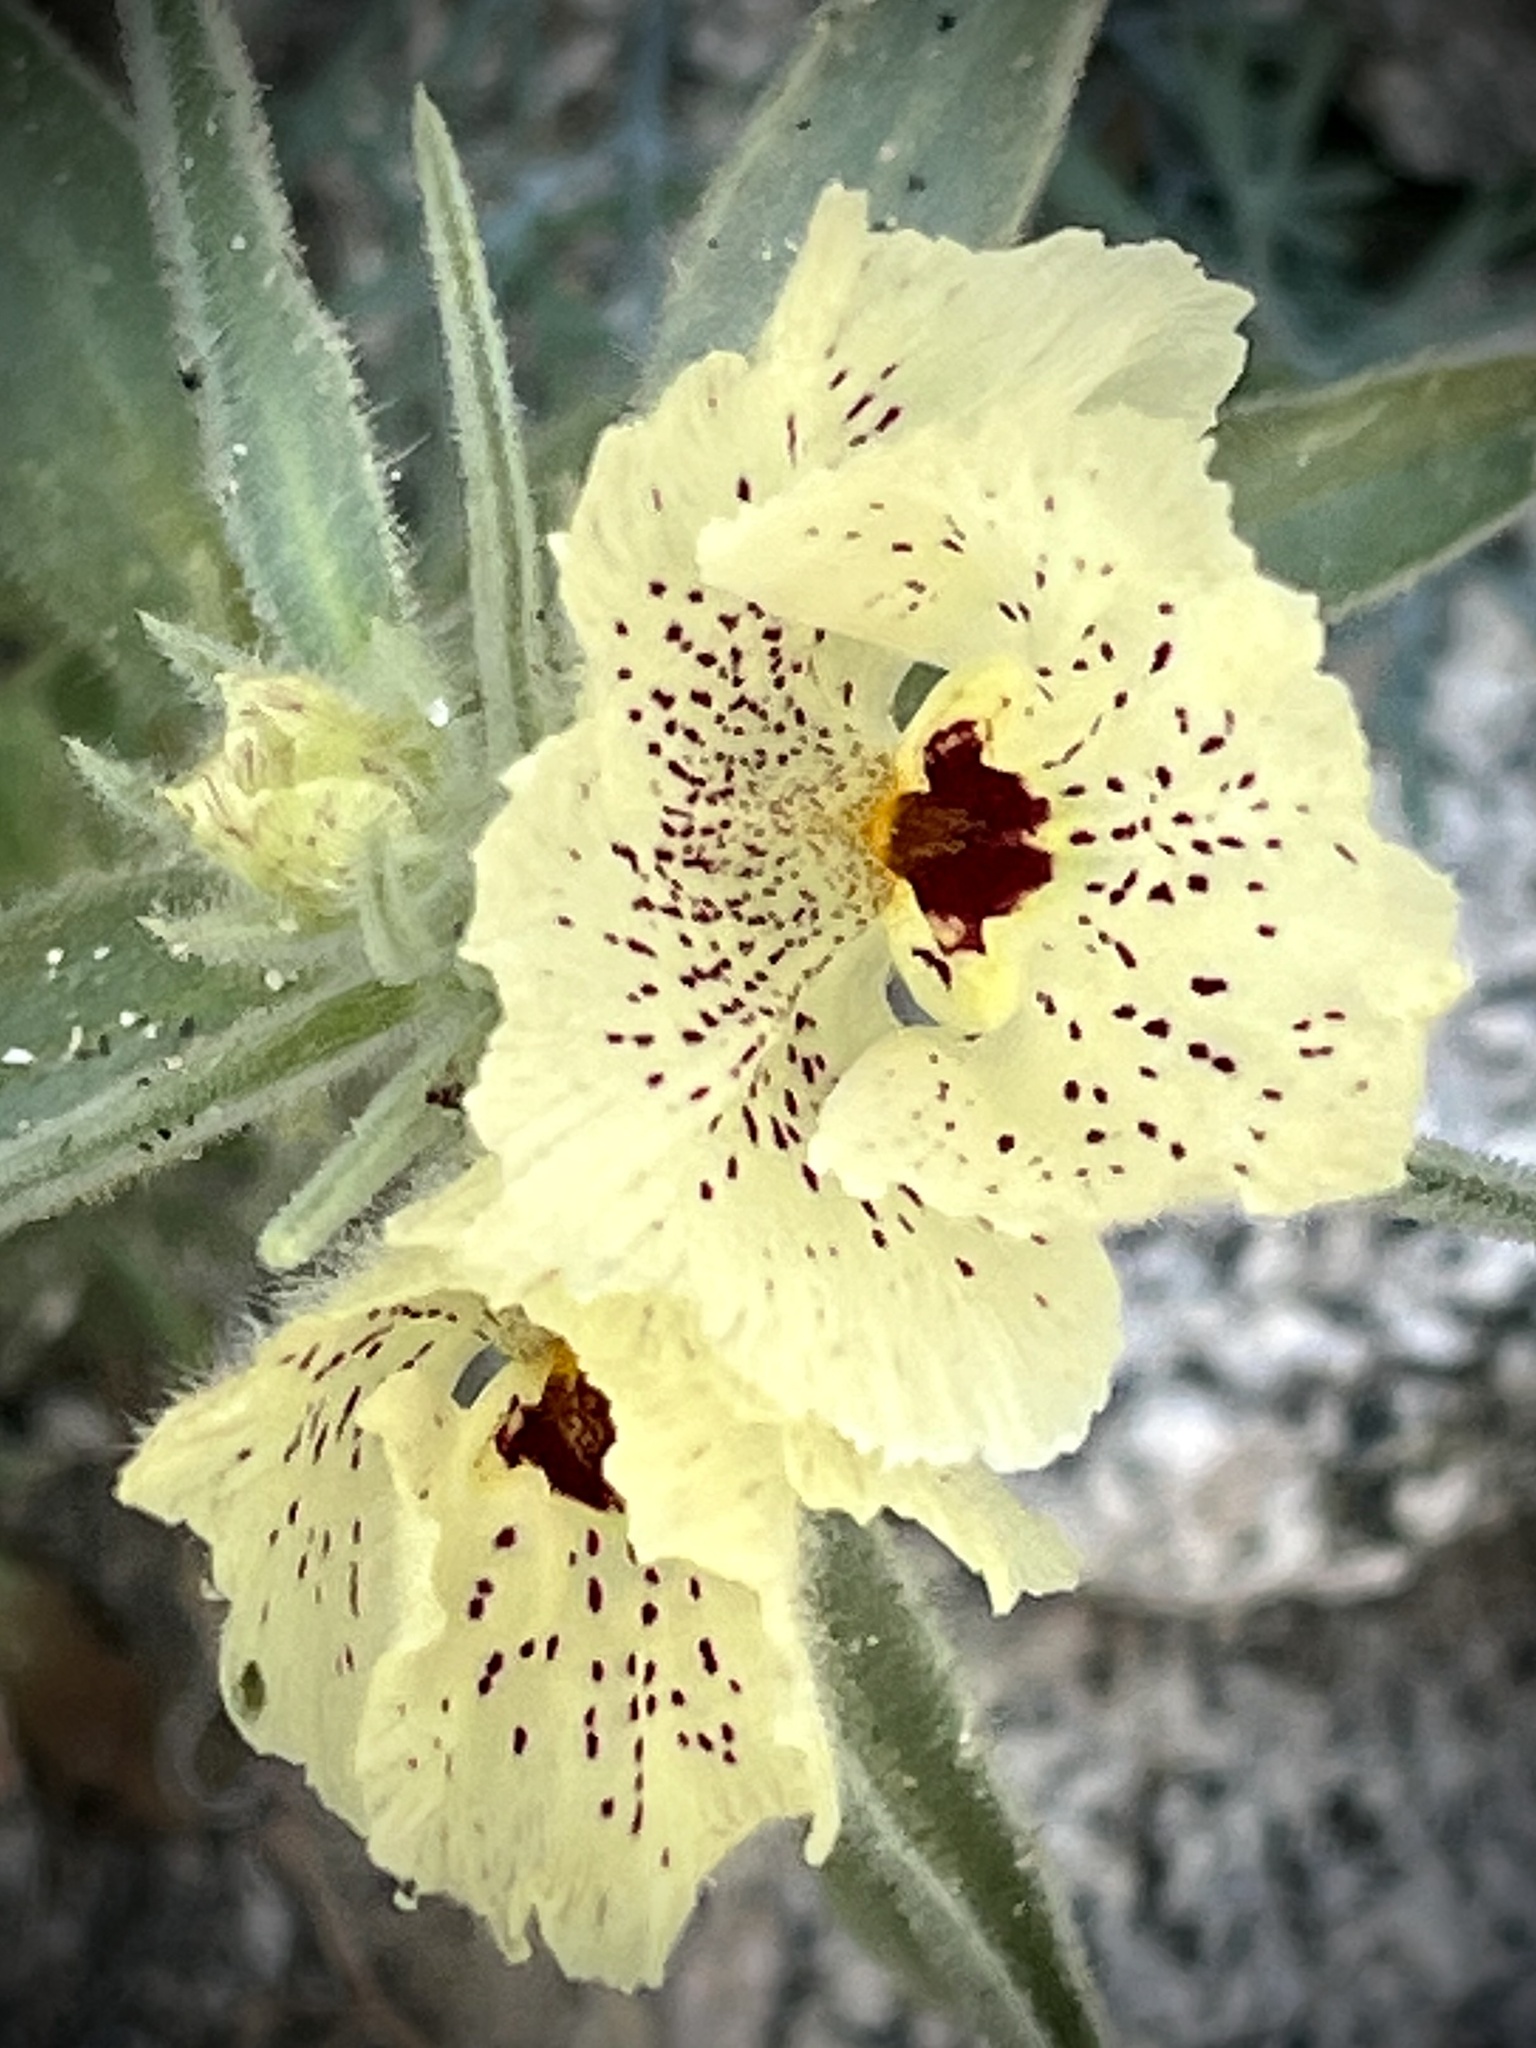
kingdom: Plantae
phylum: Tracheophyta
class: Magnoliopsida
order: Lamiales
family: Plantaginaceae
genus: Mohavea
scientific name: Mohavea confertiflora
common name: Ghost flower
